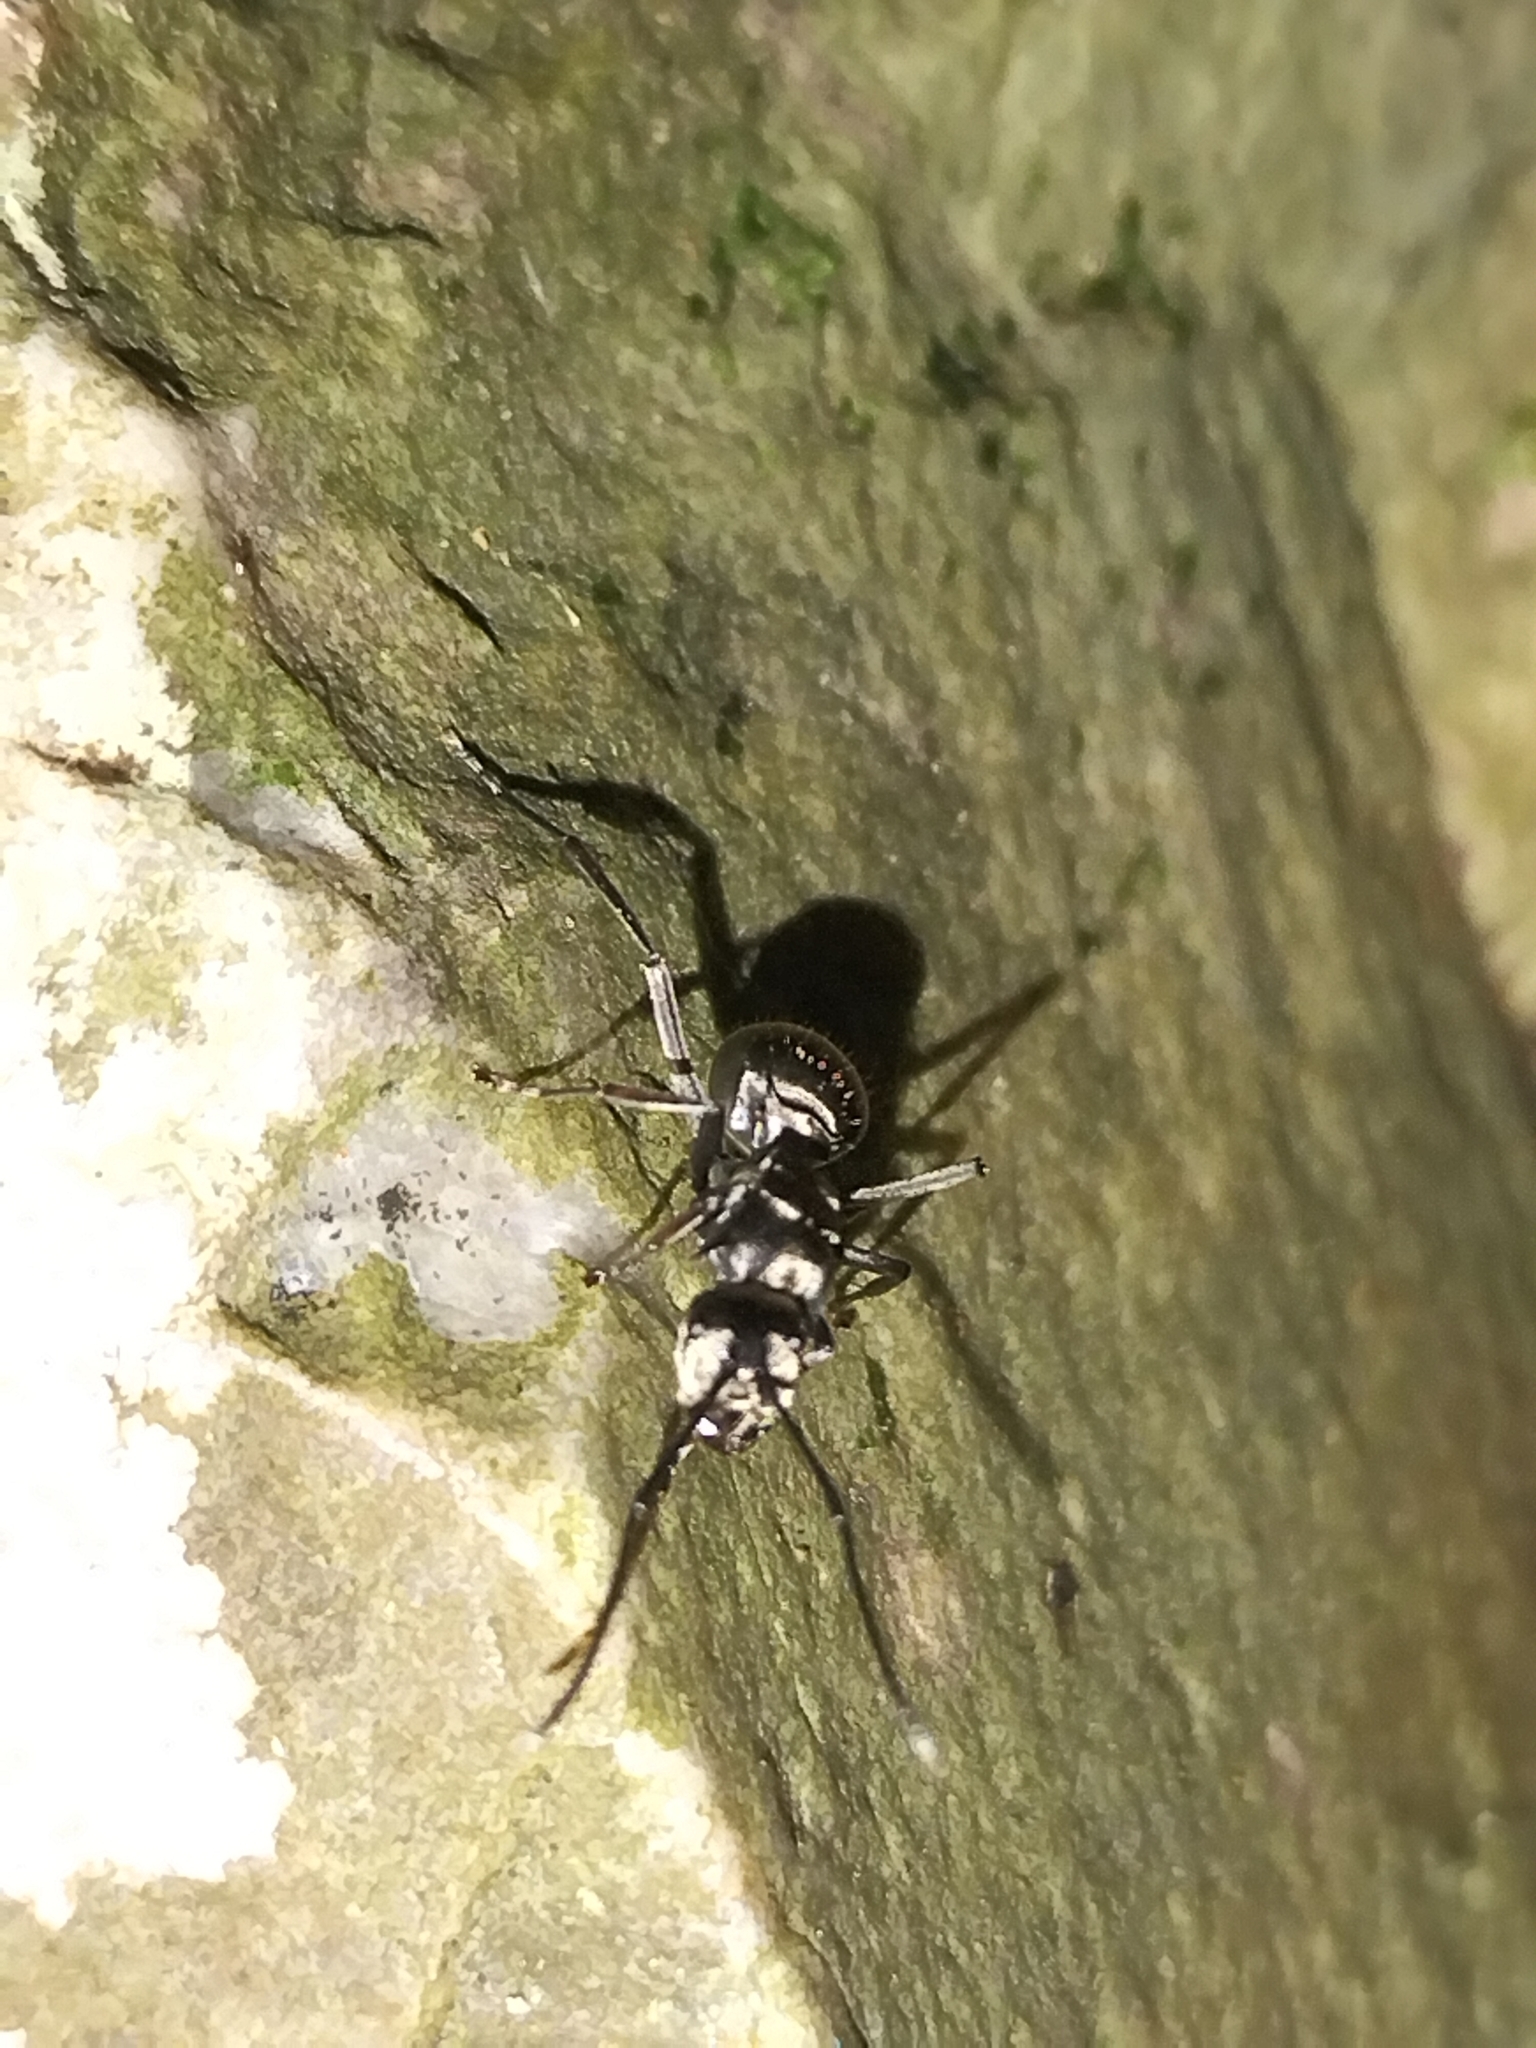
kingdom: Animalia
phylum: Arthropoda
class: Insecta
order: Hymenoptera
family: Formicidae
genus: Polyrhachis
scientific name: Polyrhachis foreli
